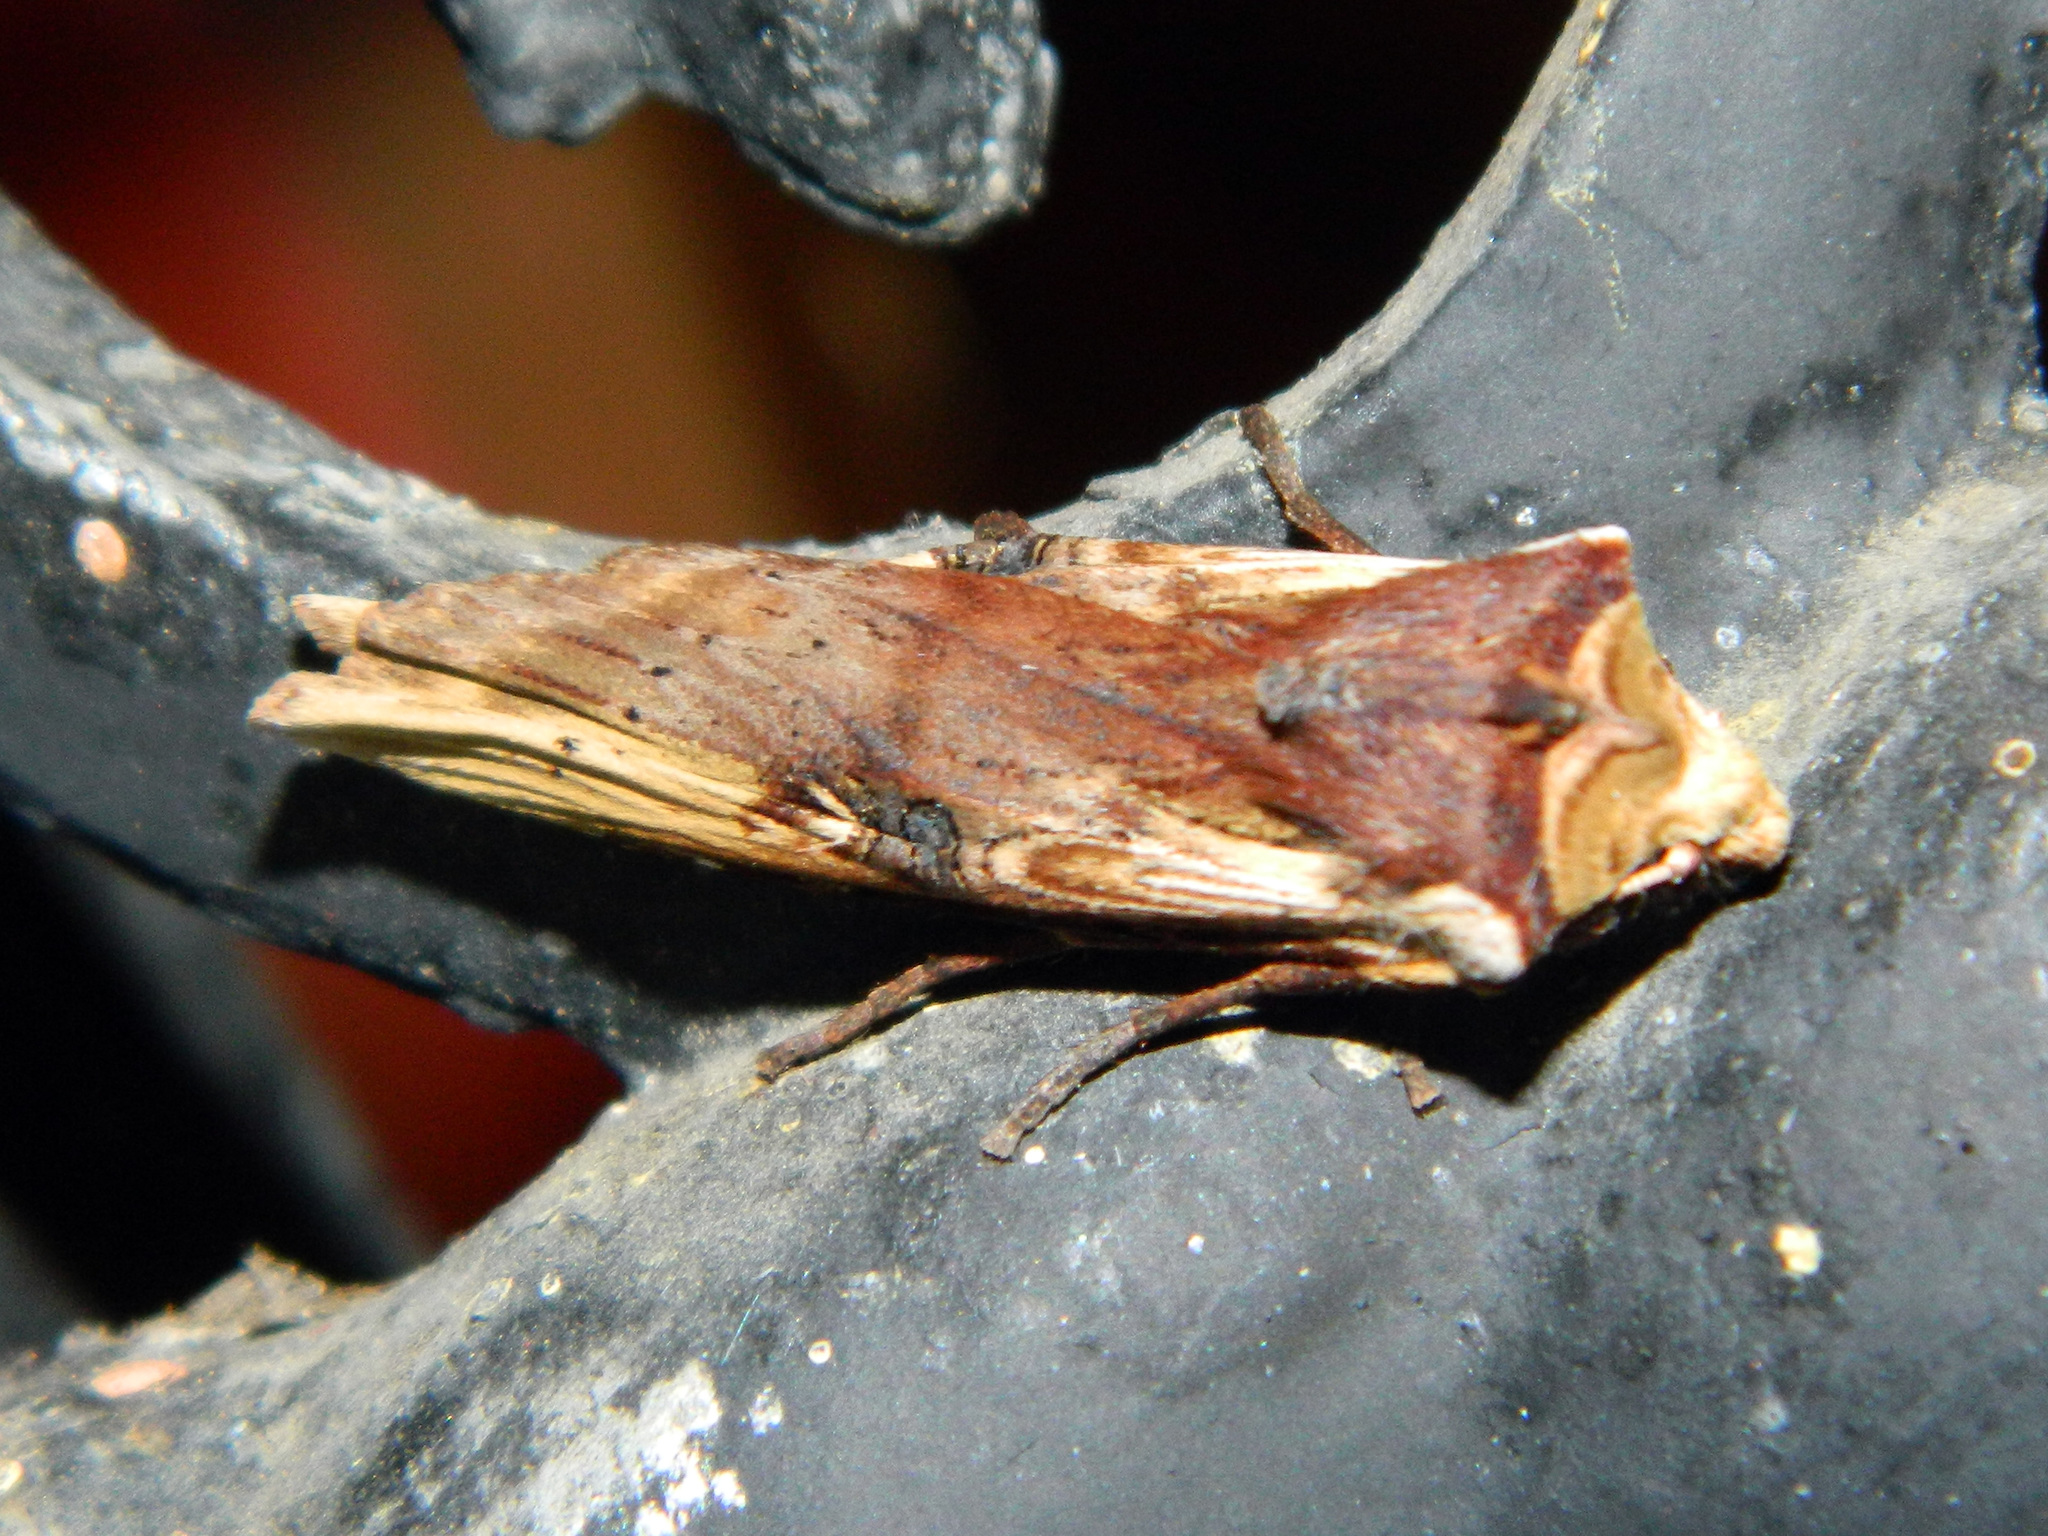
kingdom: Animalia
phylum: Arthropoda
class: Insecta
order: Lepidoptera
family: Noctuidae
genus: Xylena
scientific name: Xylena curvimacula
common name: Dot-and-dash swordgrass moth
